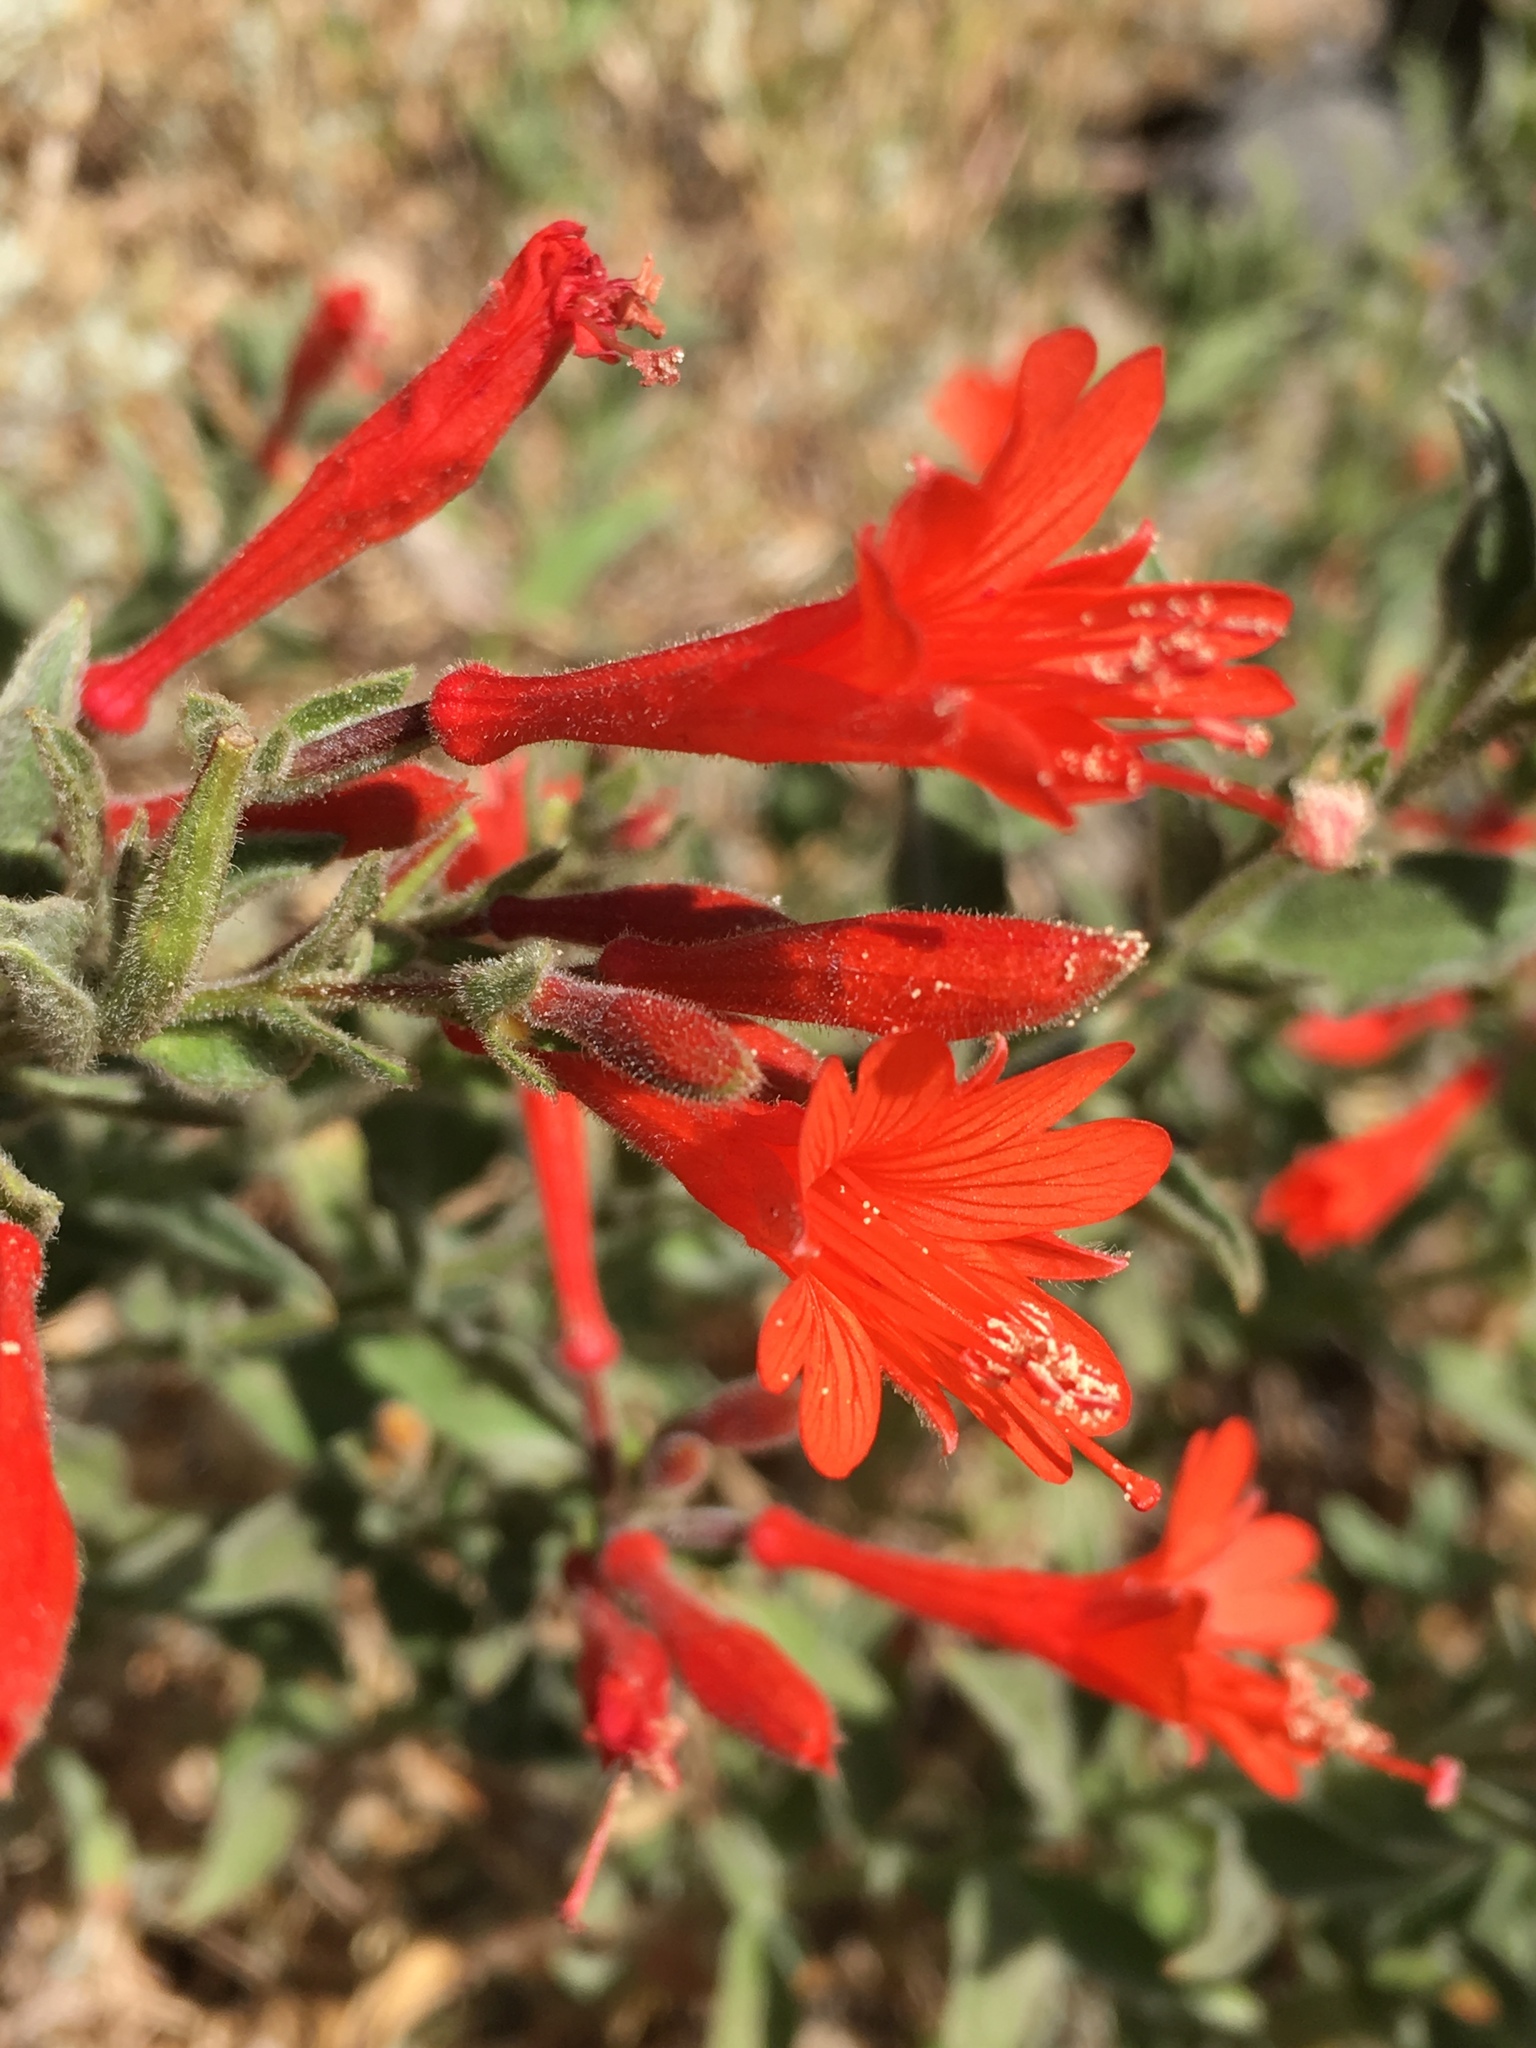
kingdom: Plantae
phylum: Tracheophyta
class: Magnoliopsida
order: Myrtales
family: Onagraceae
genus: Epilobium
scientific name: Epilobium canum
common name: California-fuchsia
